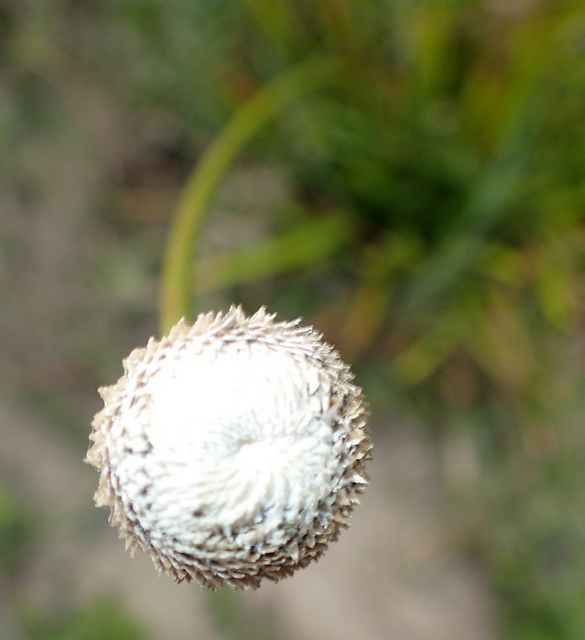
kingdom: Plantae
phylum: Tracheophyta
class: Liliopsida
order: Poales
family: Eriocaulaceae
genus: Eriocaulon
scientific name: Eriocaulon decangulare
